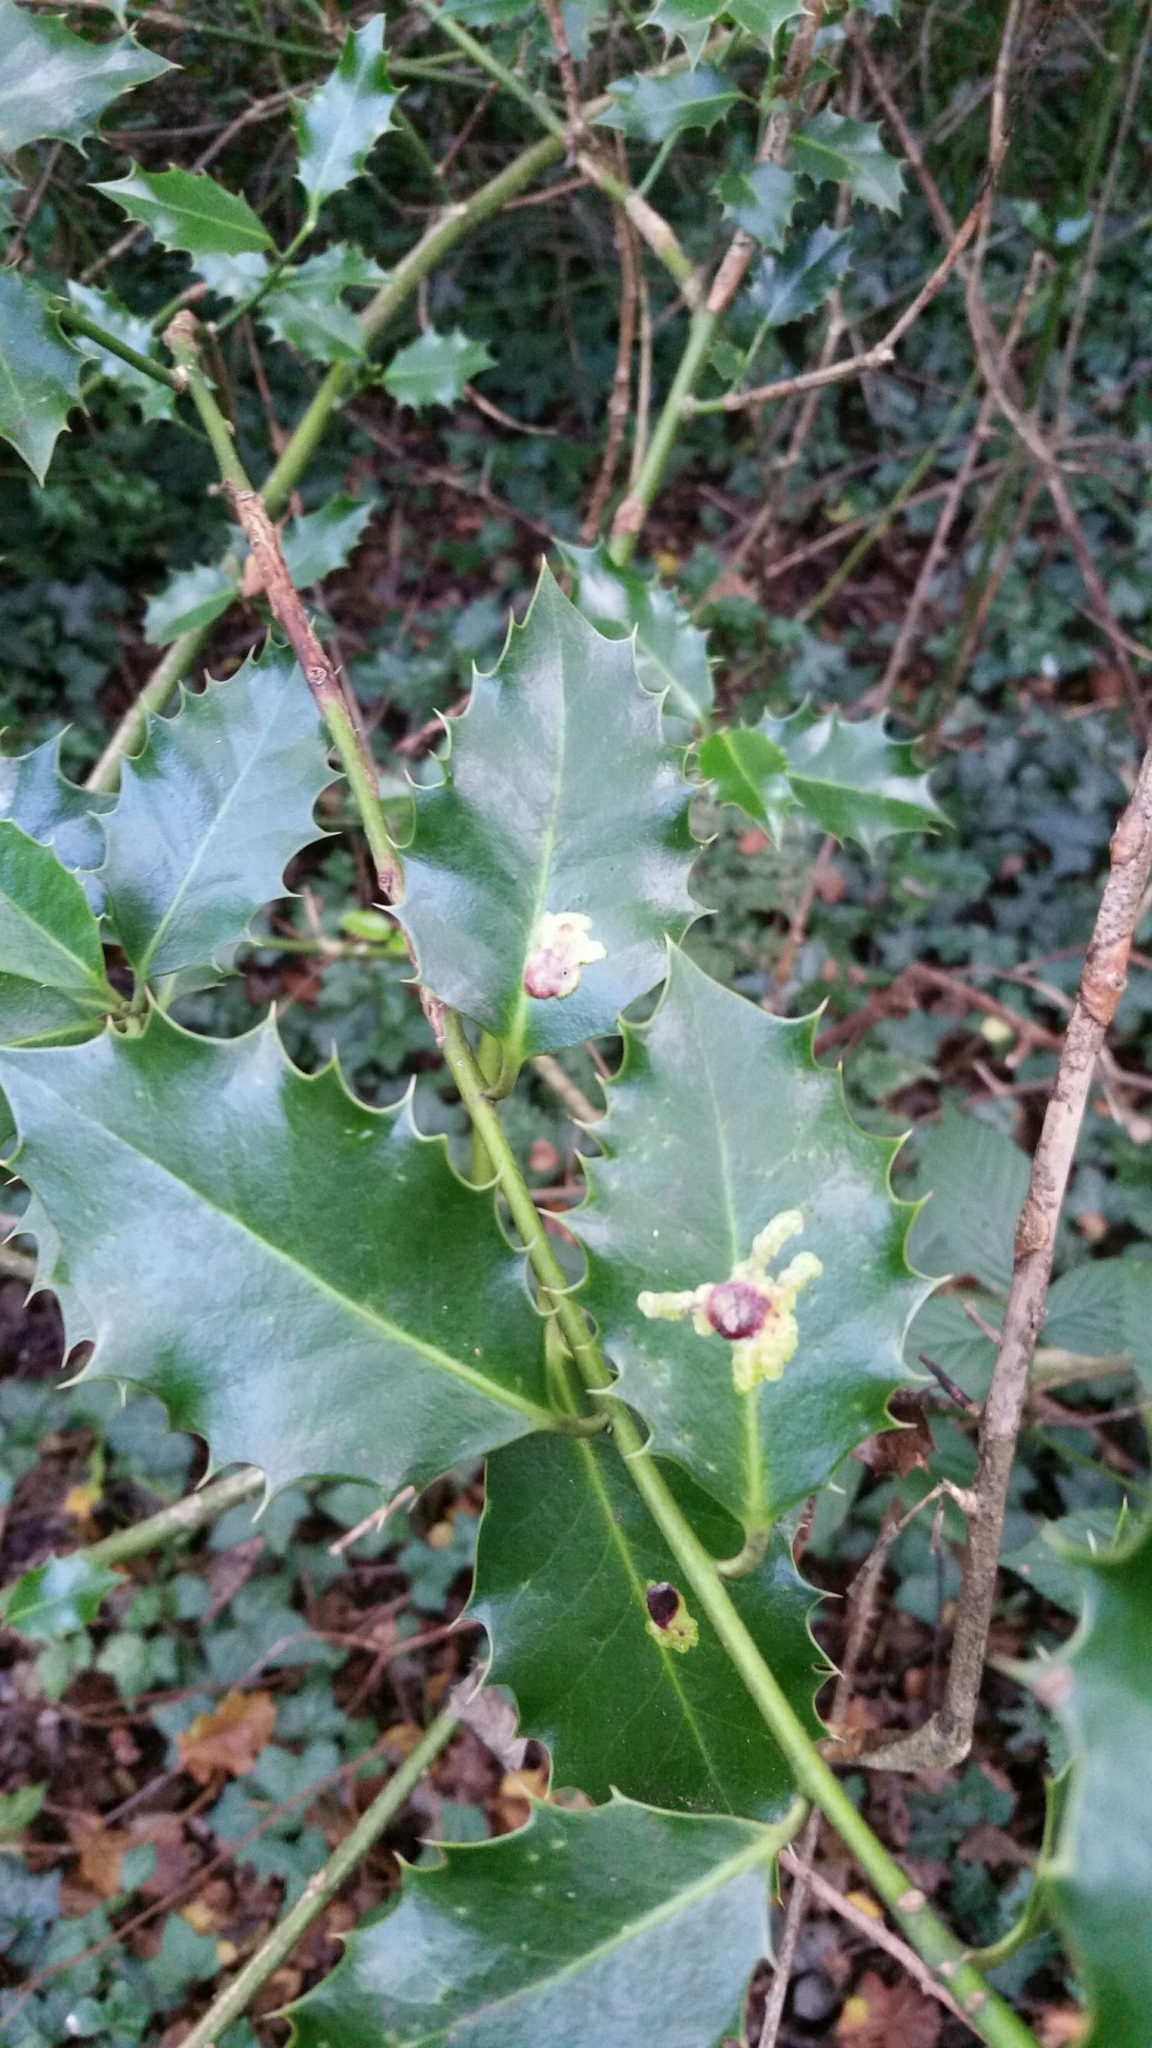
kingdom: Animalia
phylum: Arthropoda
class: Insecta
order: Diptera
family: Agromyzidae
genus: Phytomyza
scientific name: Phytomyza ilicis
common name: Holly leafminer
